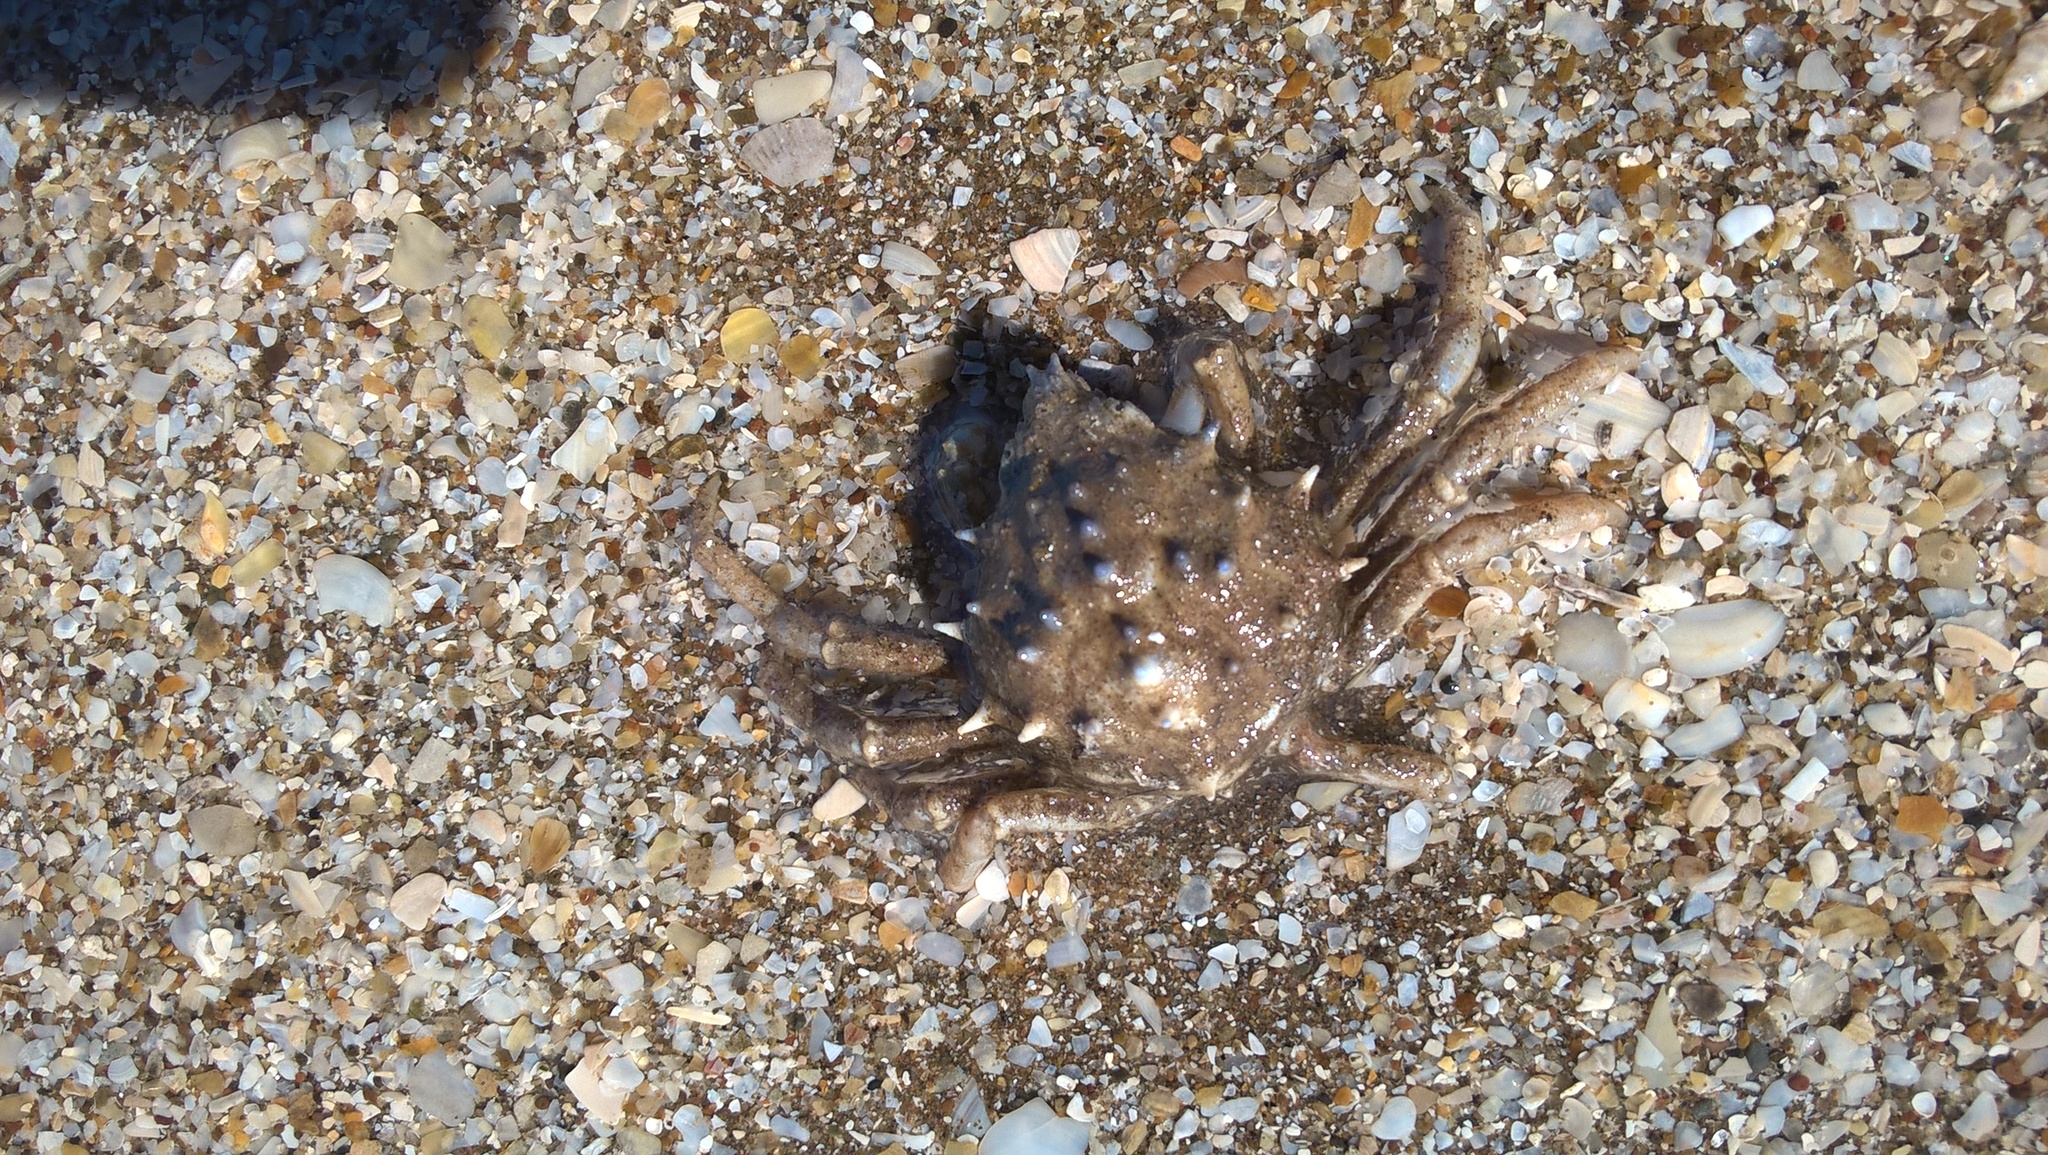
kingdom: Animalia
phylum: Arthropoda
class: Malacostraca
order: Decapoda
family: Epialtidae
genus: Libinia
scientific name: Libinia spinosa
